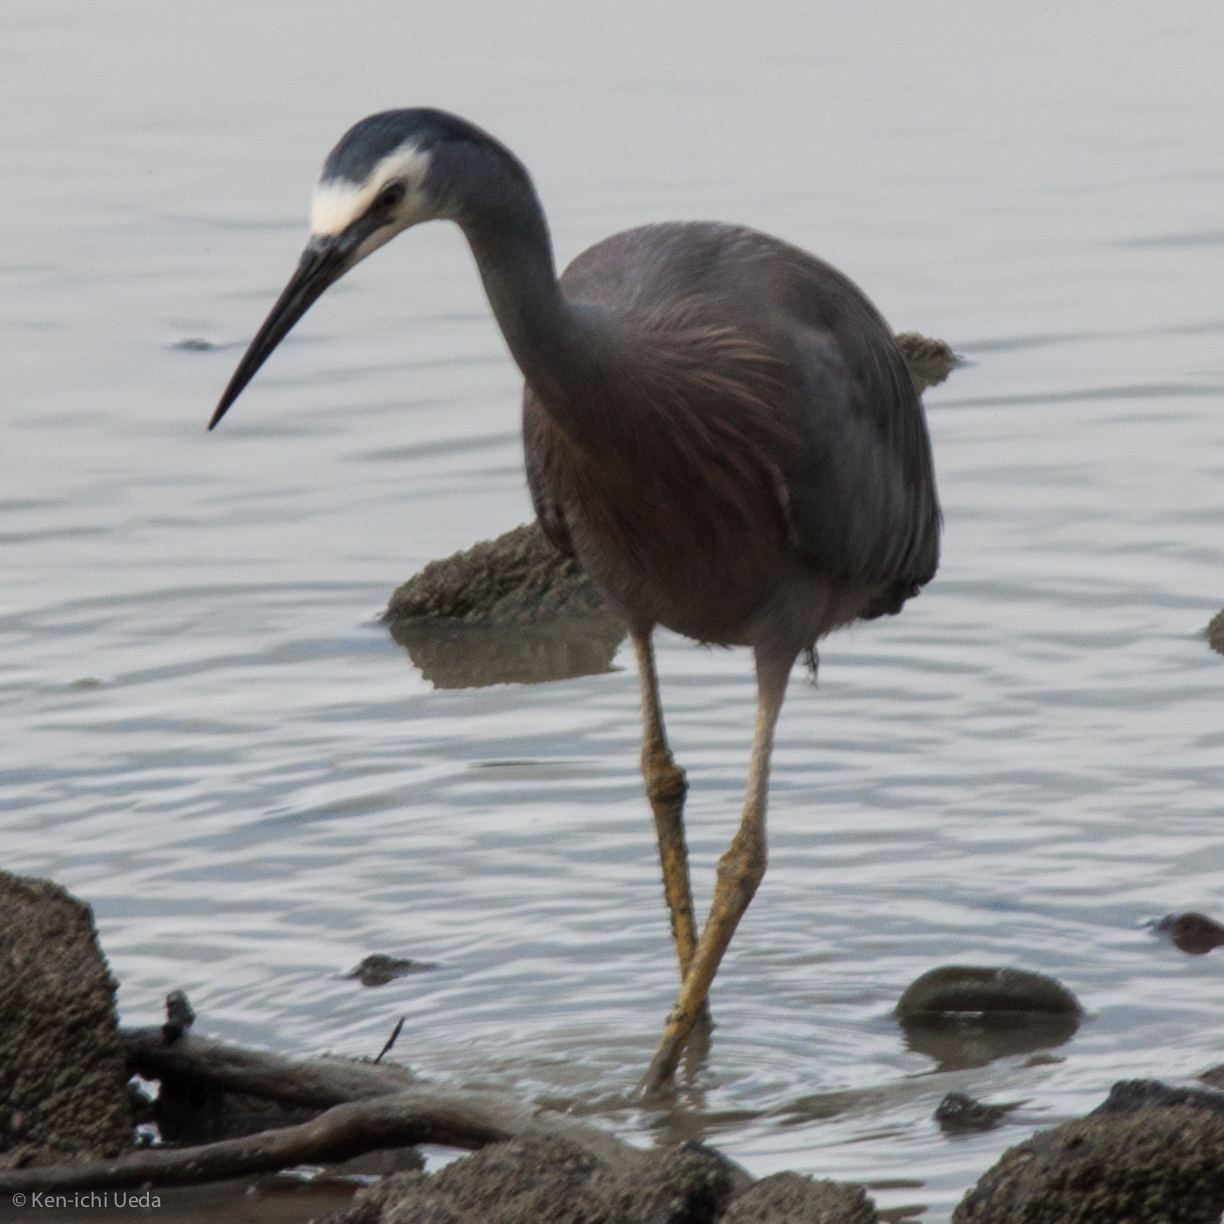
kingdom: Animalia
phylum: Chordata
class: Aves
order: Pelecaniformes
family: Ardeidae
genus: Egretta
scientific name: Egretta novaehollandiae
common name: White-faced heron
